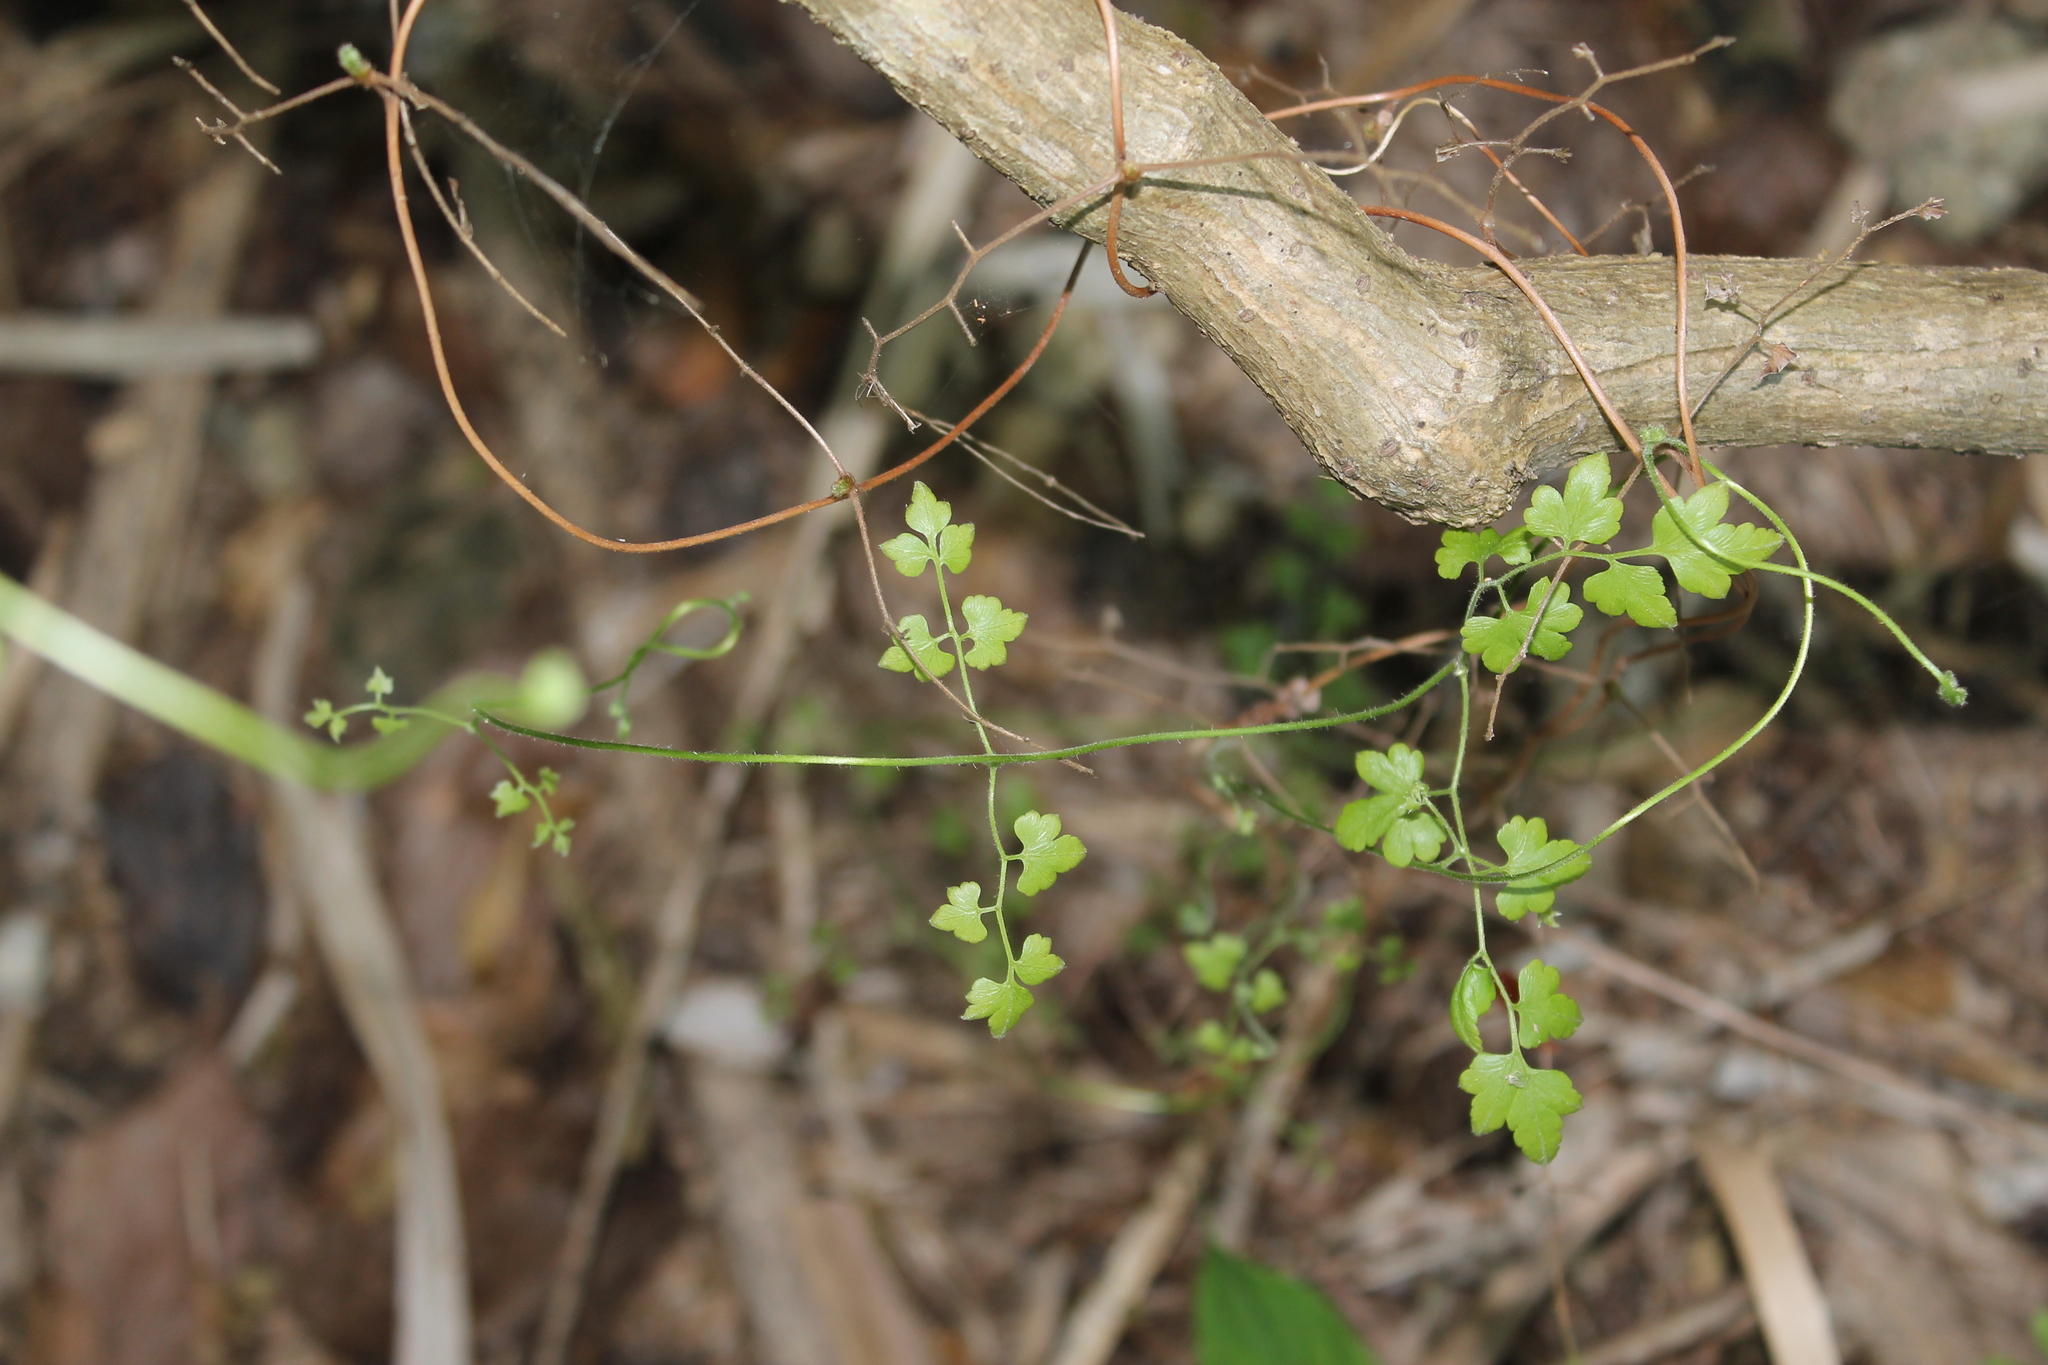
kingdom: Plantae
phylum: Tracheophyta
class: Polypodiopsida
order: Schizaeales
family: Lygodiaceae
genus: Lygodium
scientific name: Lygodium venustum
